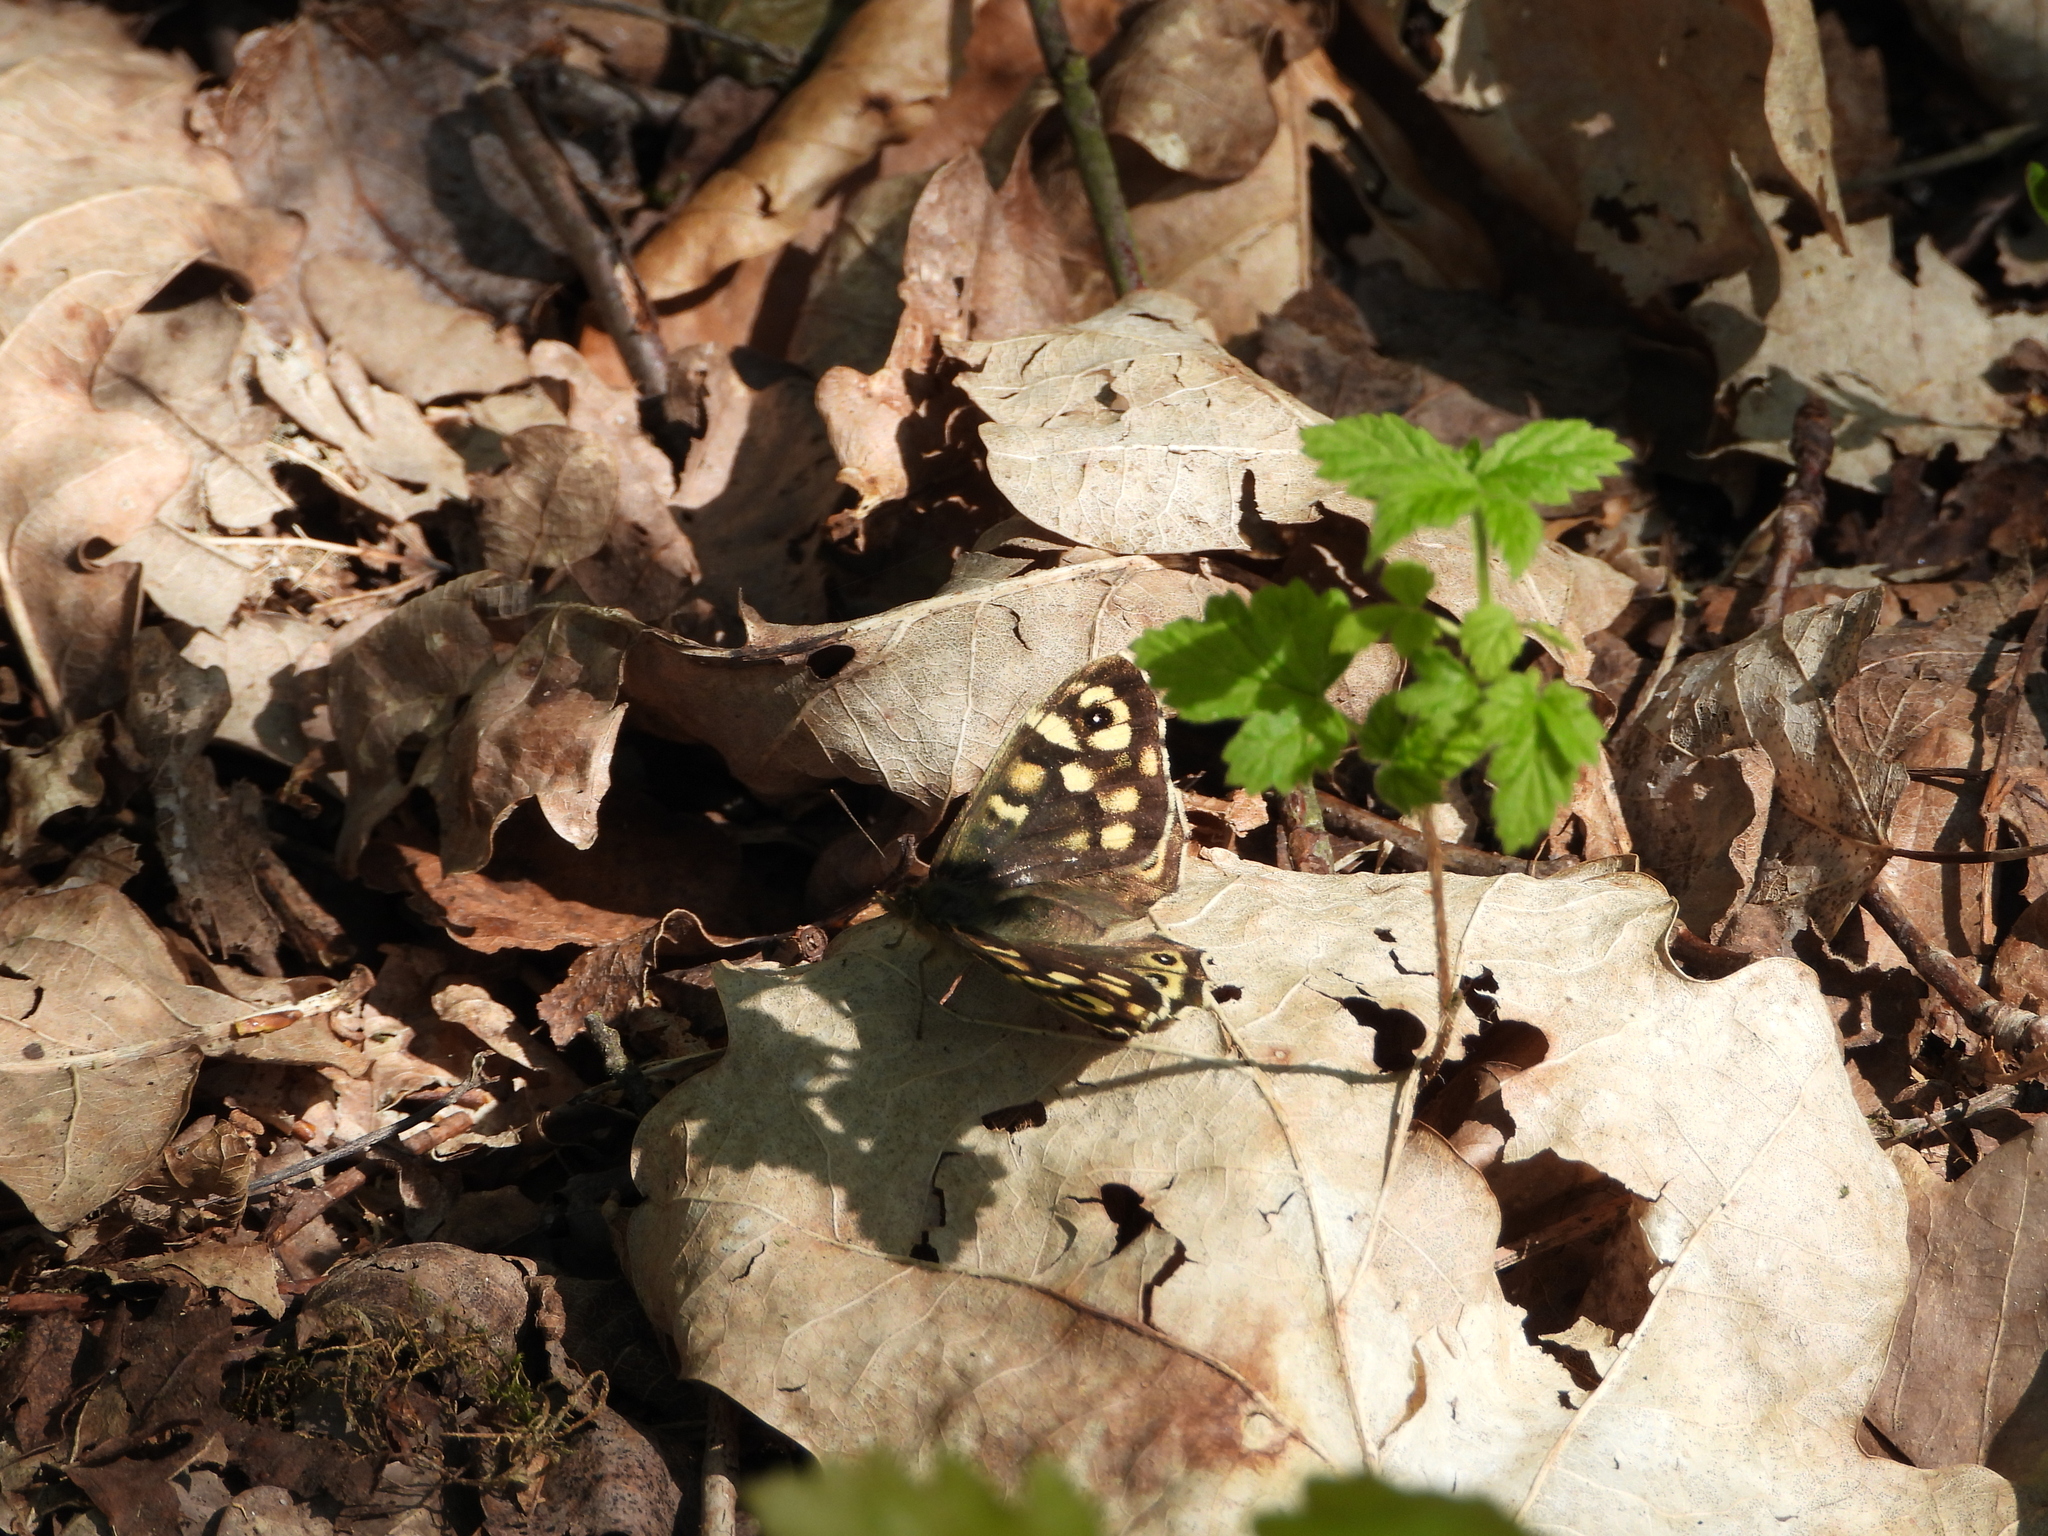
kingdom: Animalia
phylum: Arthropoda
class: Insecta
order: Lepidoptera
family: Nymphalidae
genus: Pararge
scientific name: Pararge aegeria
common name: Speckled wood
